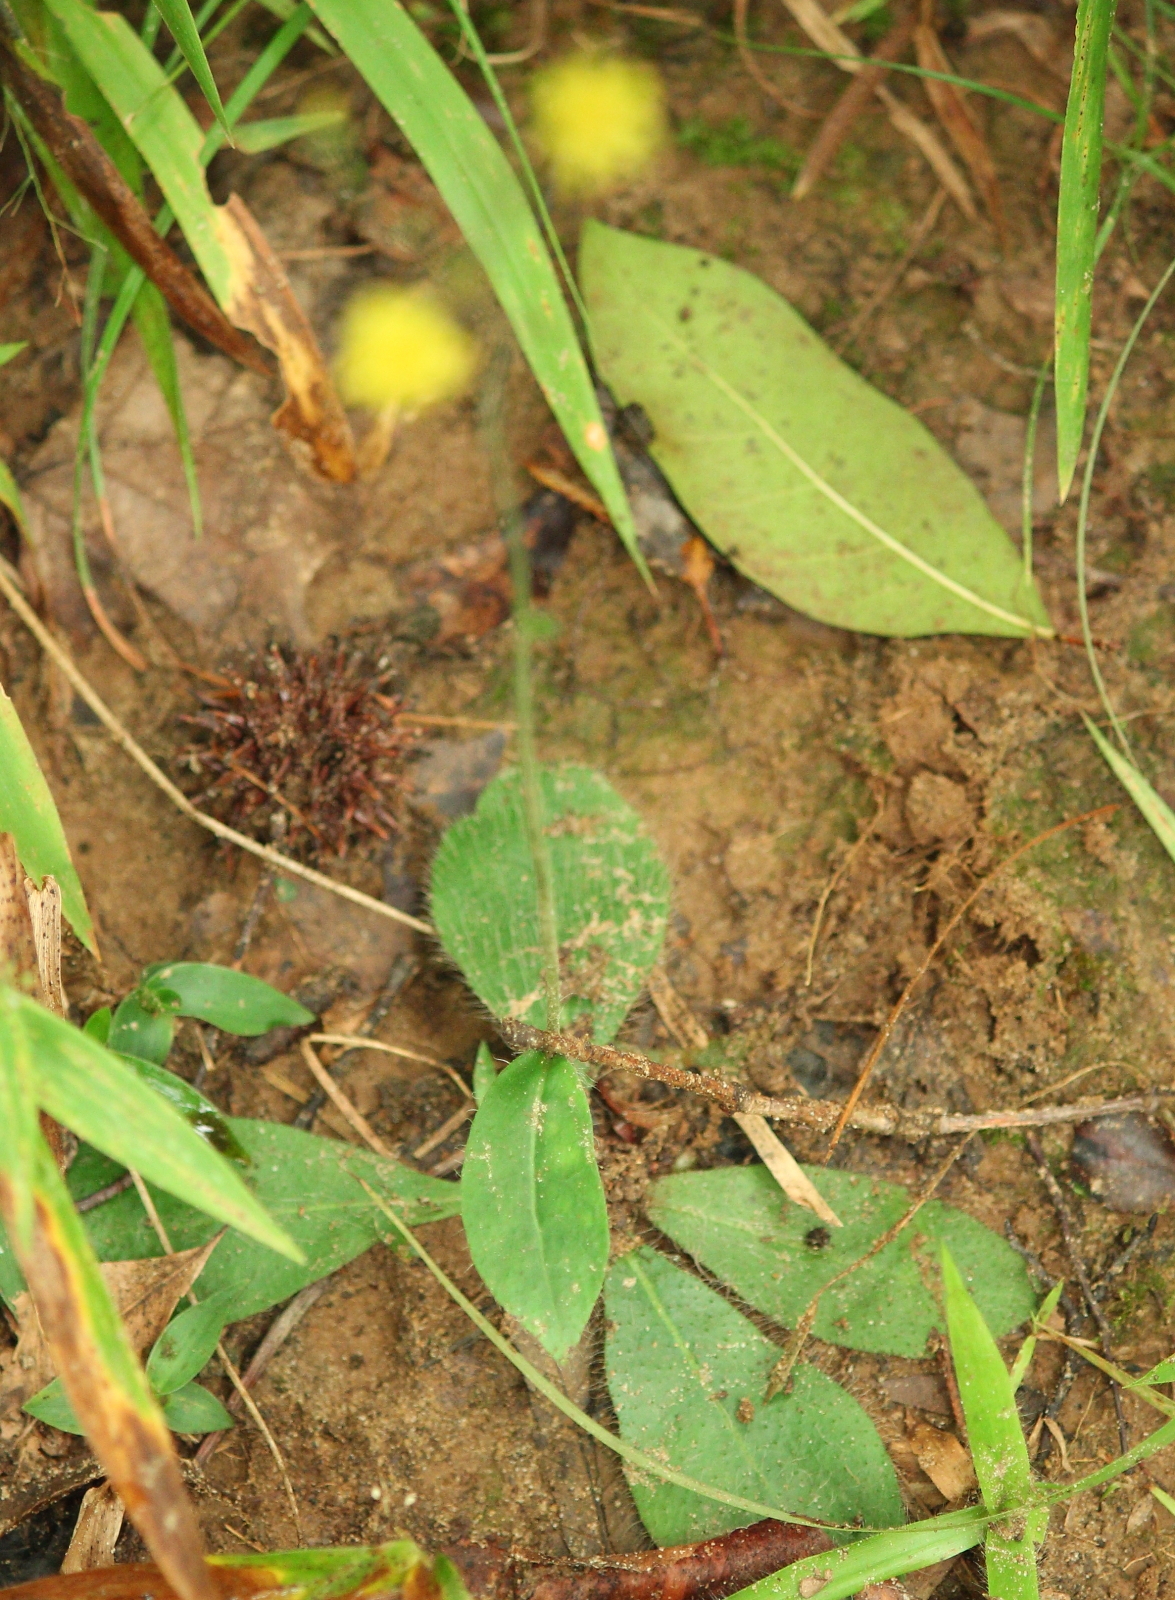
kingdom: Plantae
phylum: Tracheophyta
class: Magnoliopsida
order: Asterales
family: Asteraceae
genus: Hieracium
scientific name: Hieracium gronovii
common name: Beaked hawkweed
